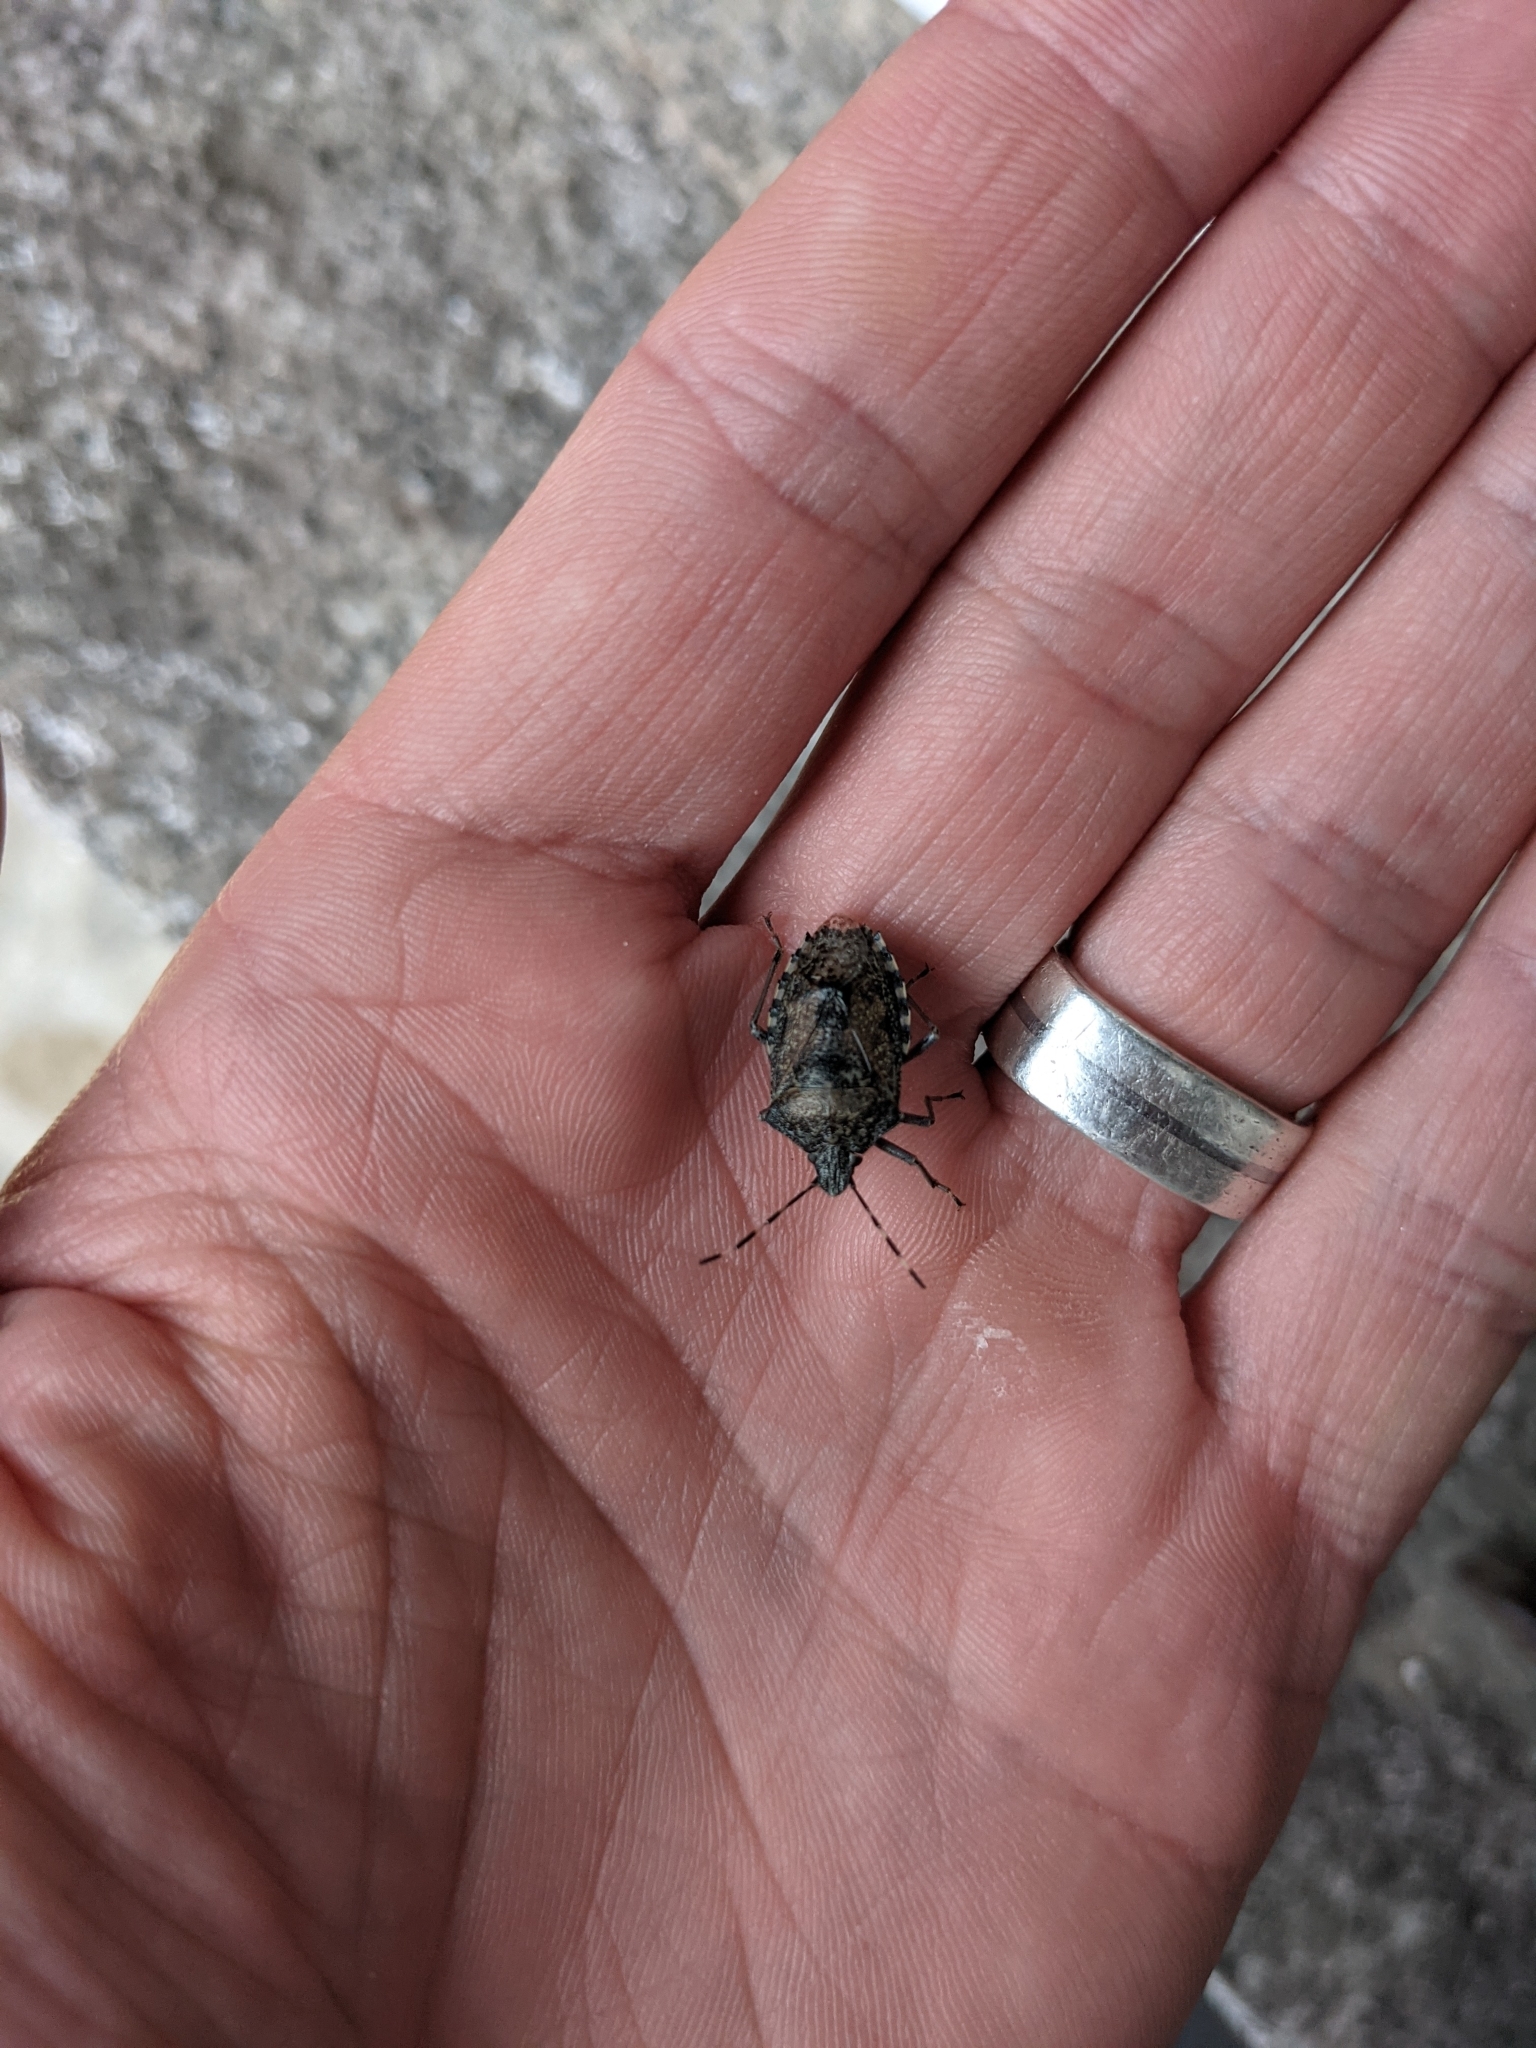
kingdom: Animalia
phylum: Arthropoda
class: Insecta
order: Hemiptera
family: Pentatomidae
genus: Rhaphigaster
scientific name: Rhaphigaster nebulosa
